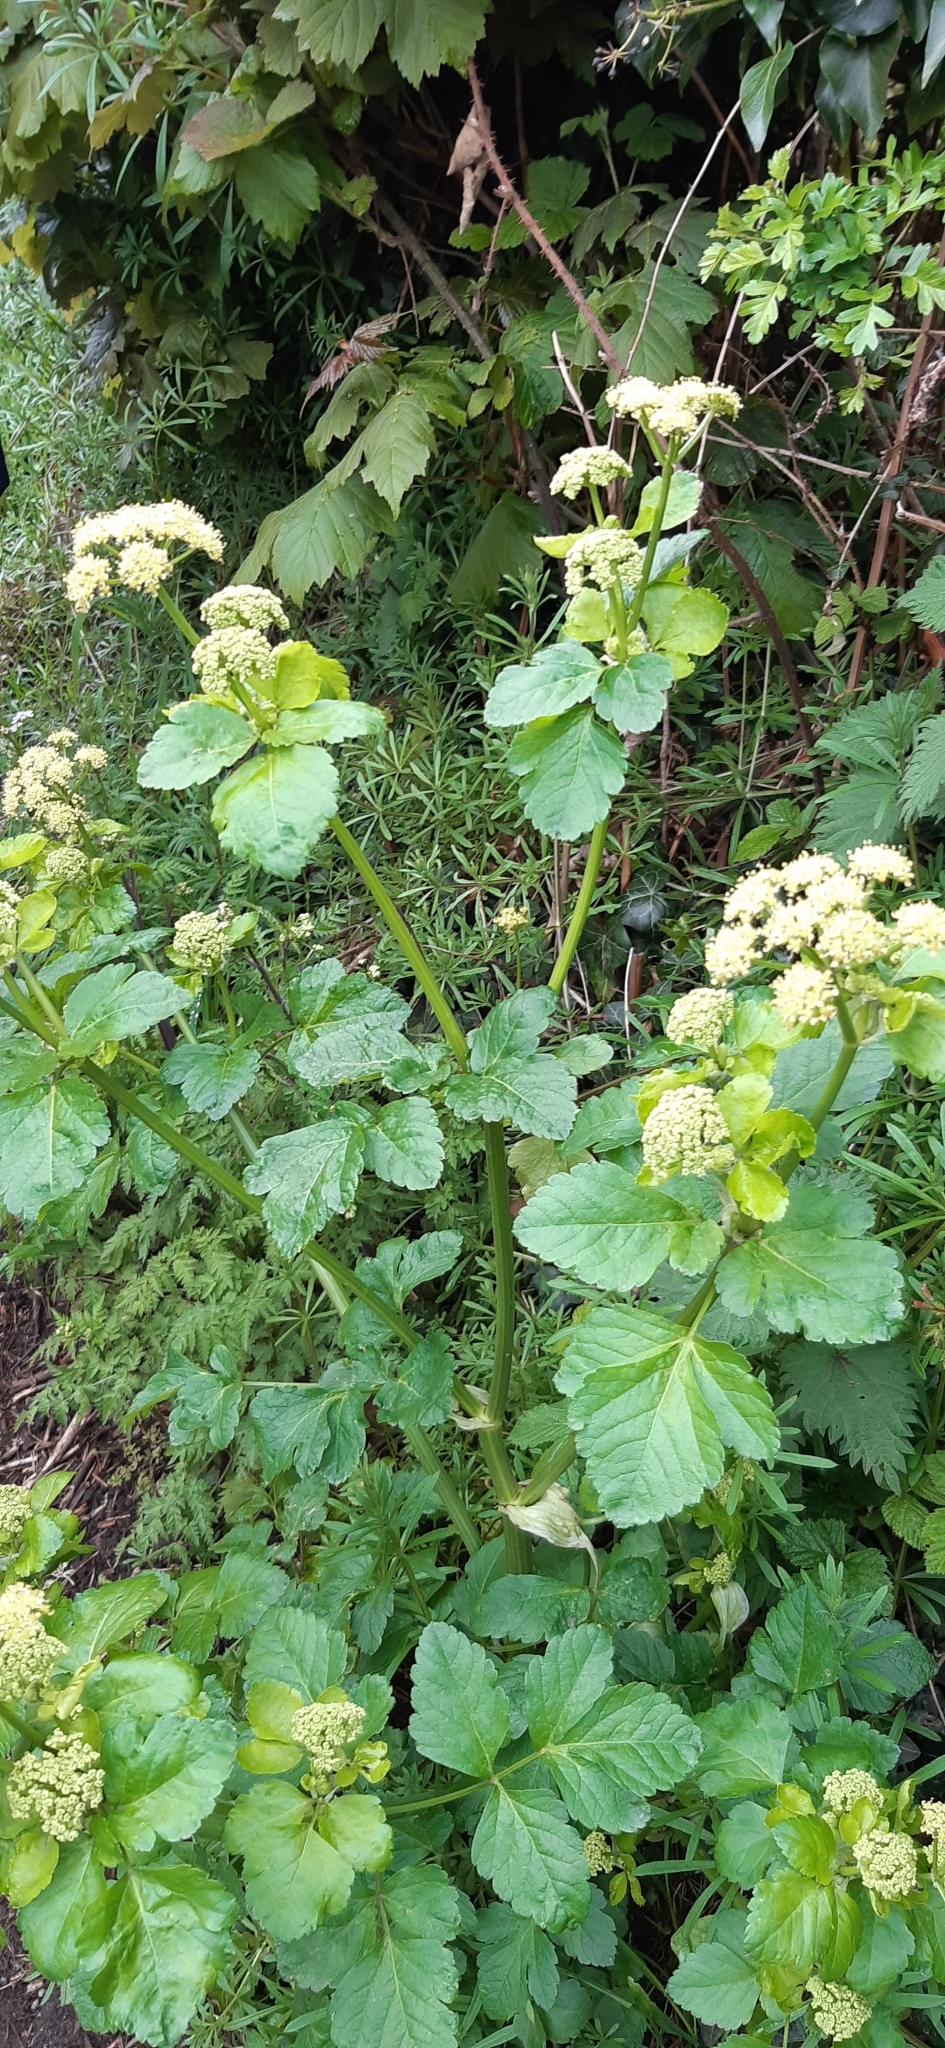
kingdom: Plantae
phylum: Tracheophyta
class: Magnoliopsida
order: Apiales
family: Apiaceae
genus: Smyrnium
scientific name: Smyrnium olusatrum
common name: Alexanders
